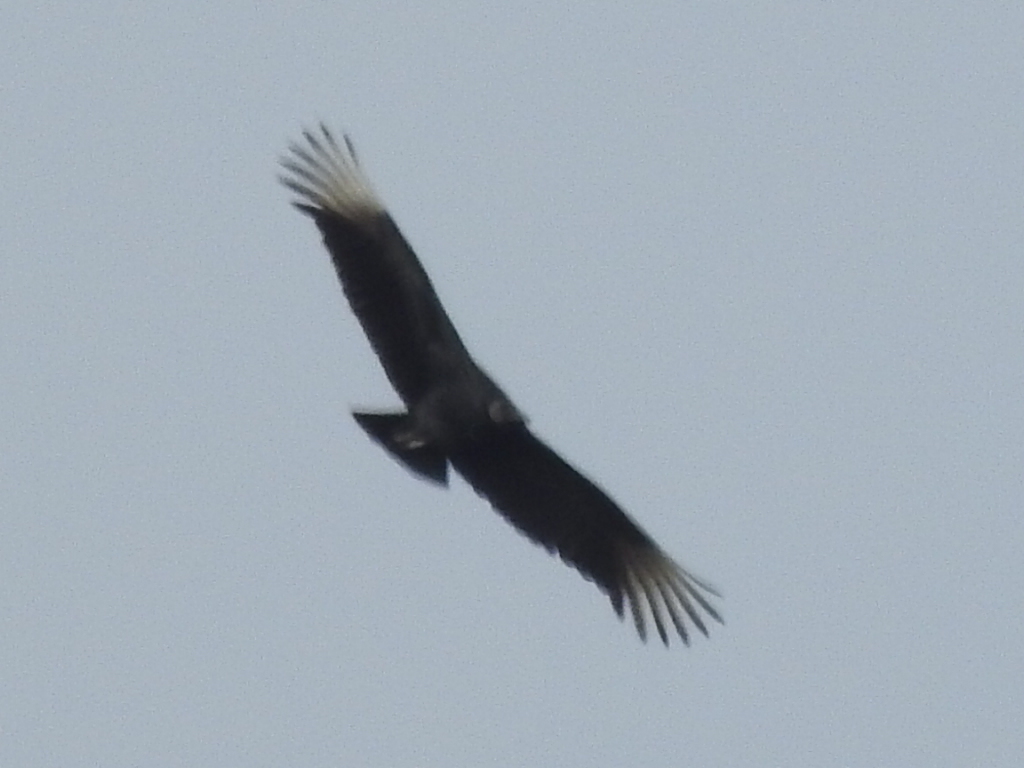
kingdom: Animalia
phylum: Chordata
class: Aves
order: Accipitriformes
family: Cathartidae
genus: Coragyps
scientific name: Coragyps atratus
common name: Black vulture
